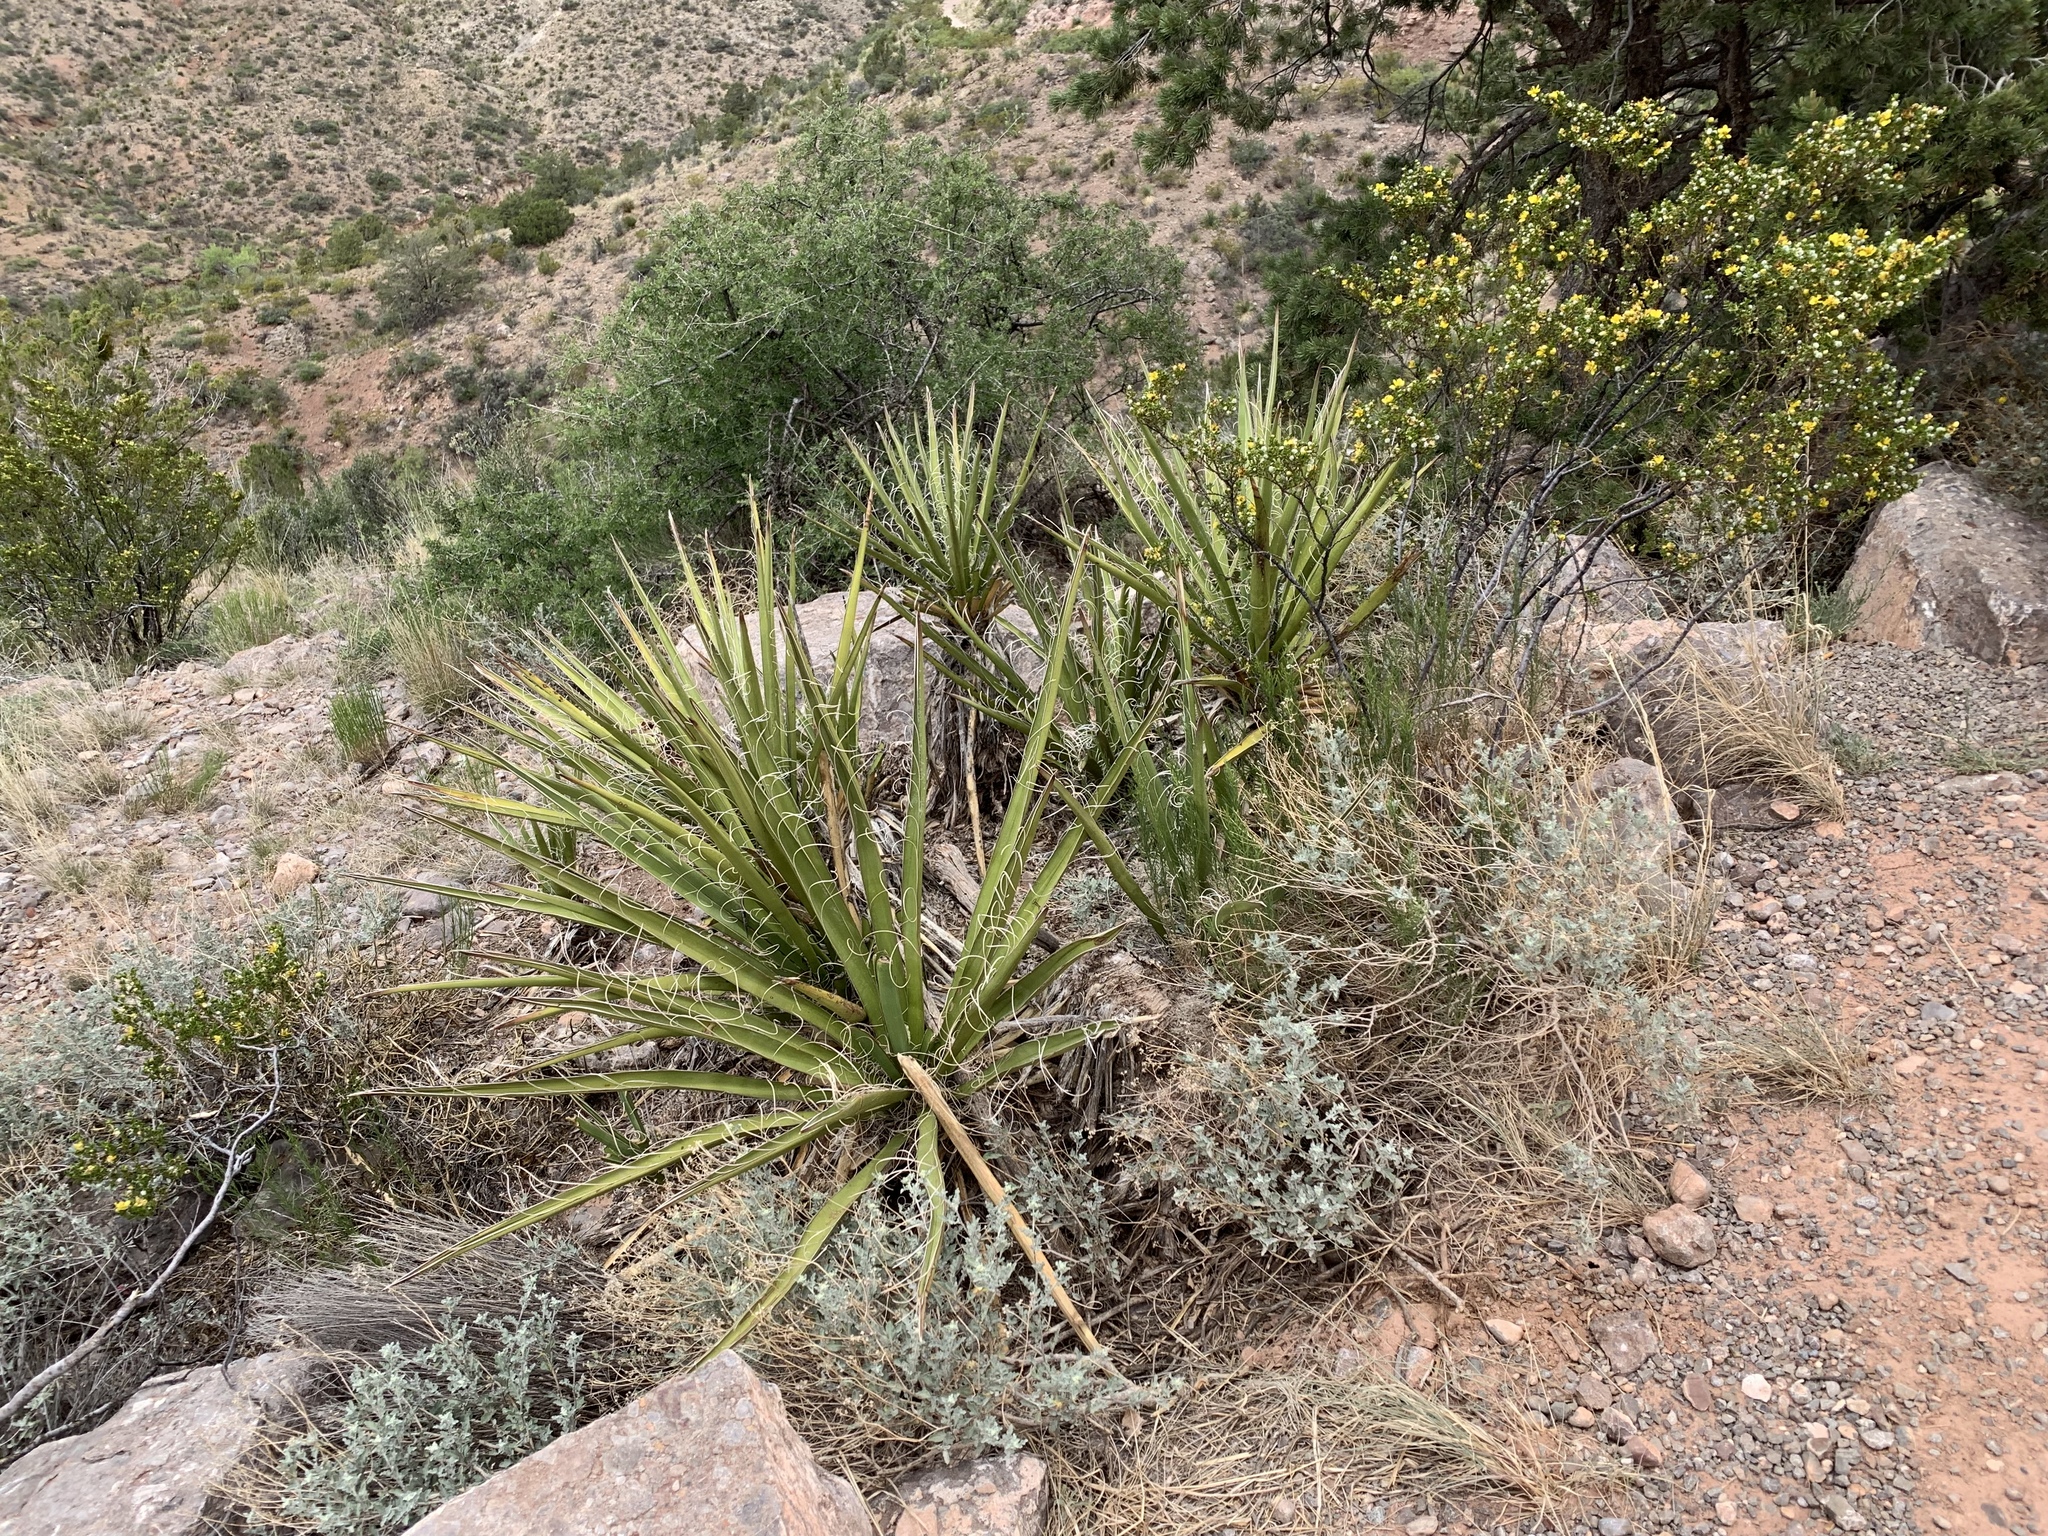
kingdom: Plantae
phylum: Tracheophyta
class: Liliopsida
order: Asparagales
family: Asparagaceae
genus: Yucca
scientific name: Yucca baccata
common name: Banana yucca
